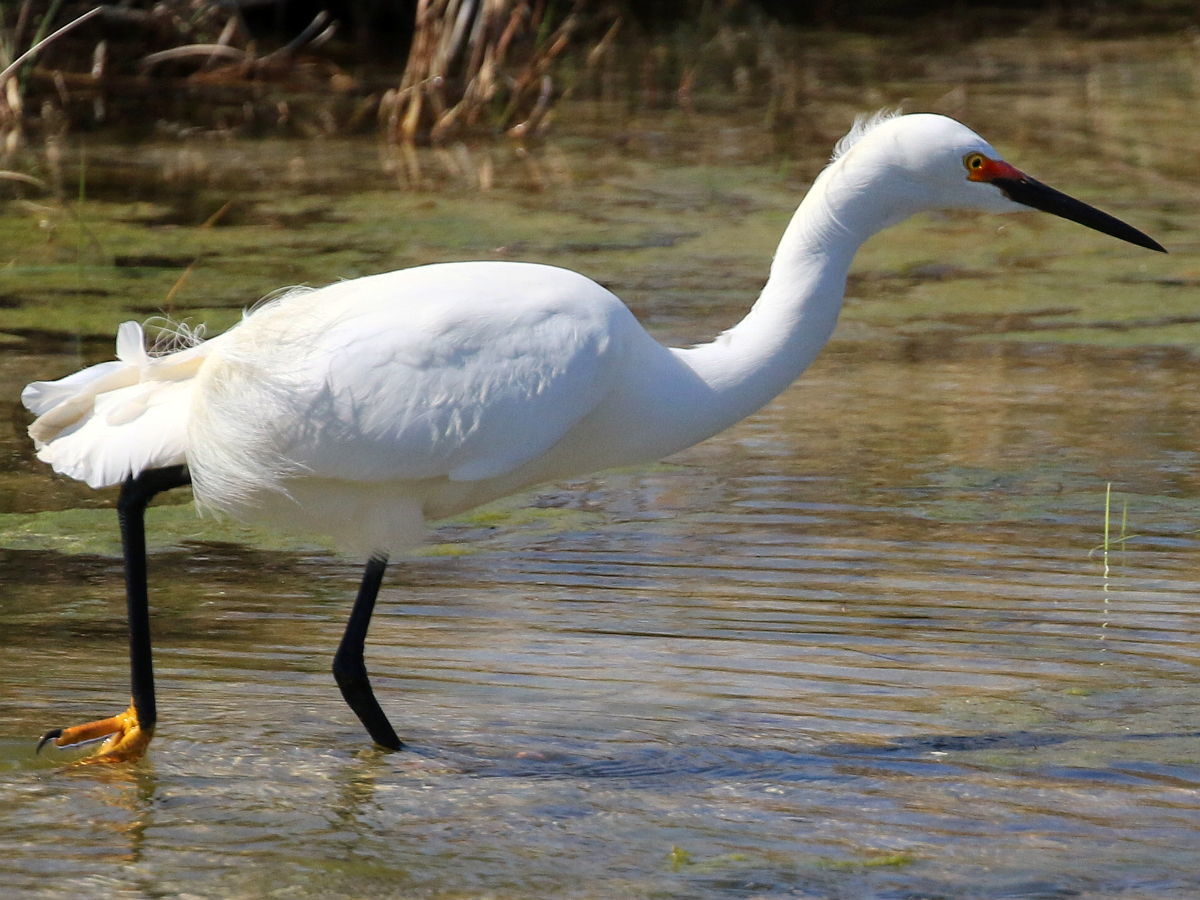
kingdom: Animalia
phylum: Chordata
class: Aves
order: Pelecaniformes
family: Ardeidae
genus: Egretta
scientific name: Egretta thula
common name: Snowy egret
